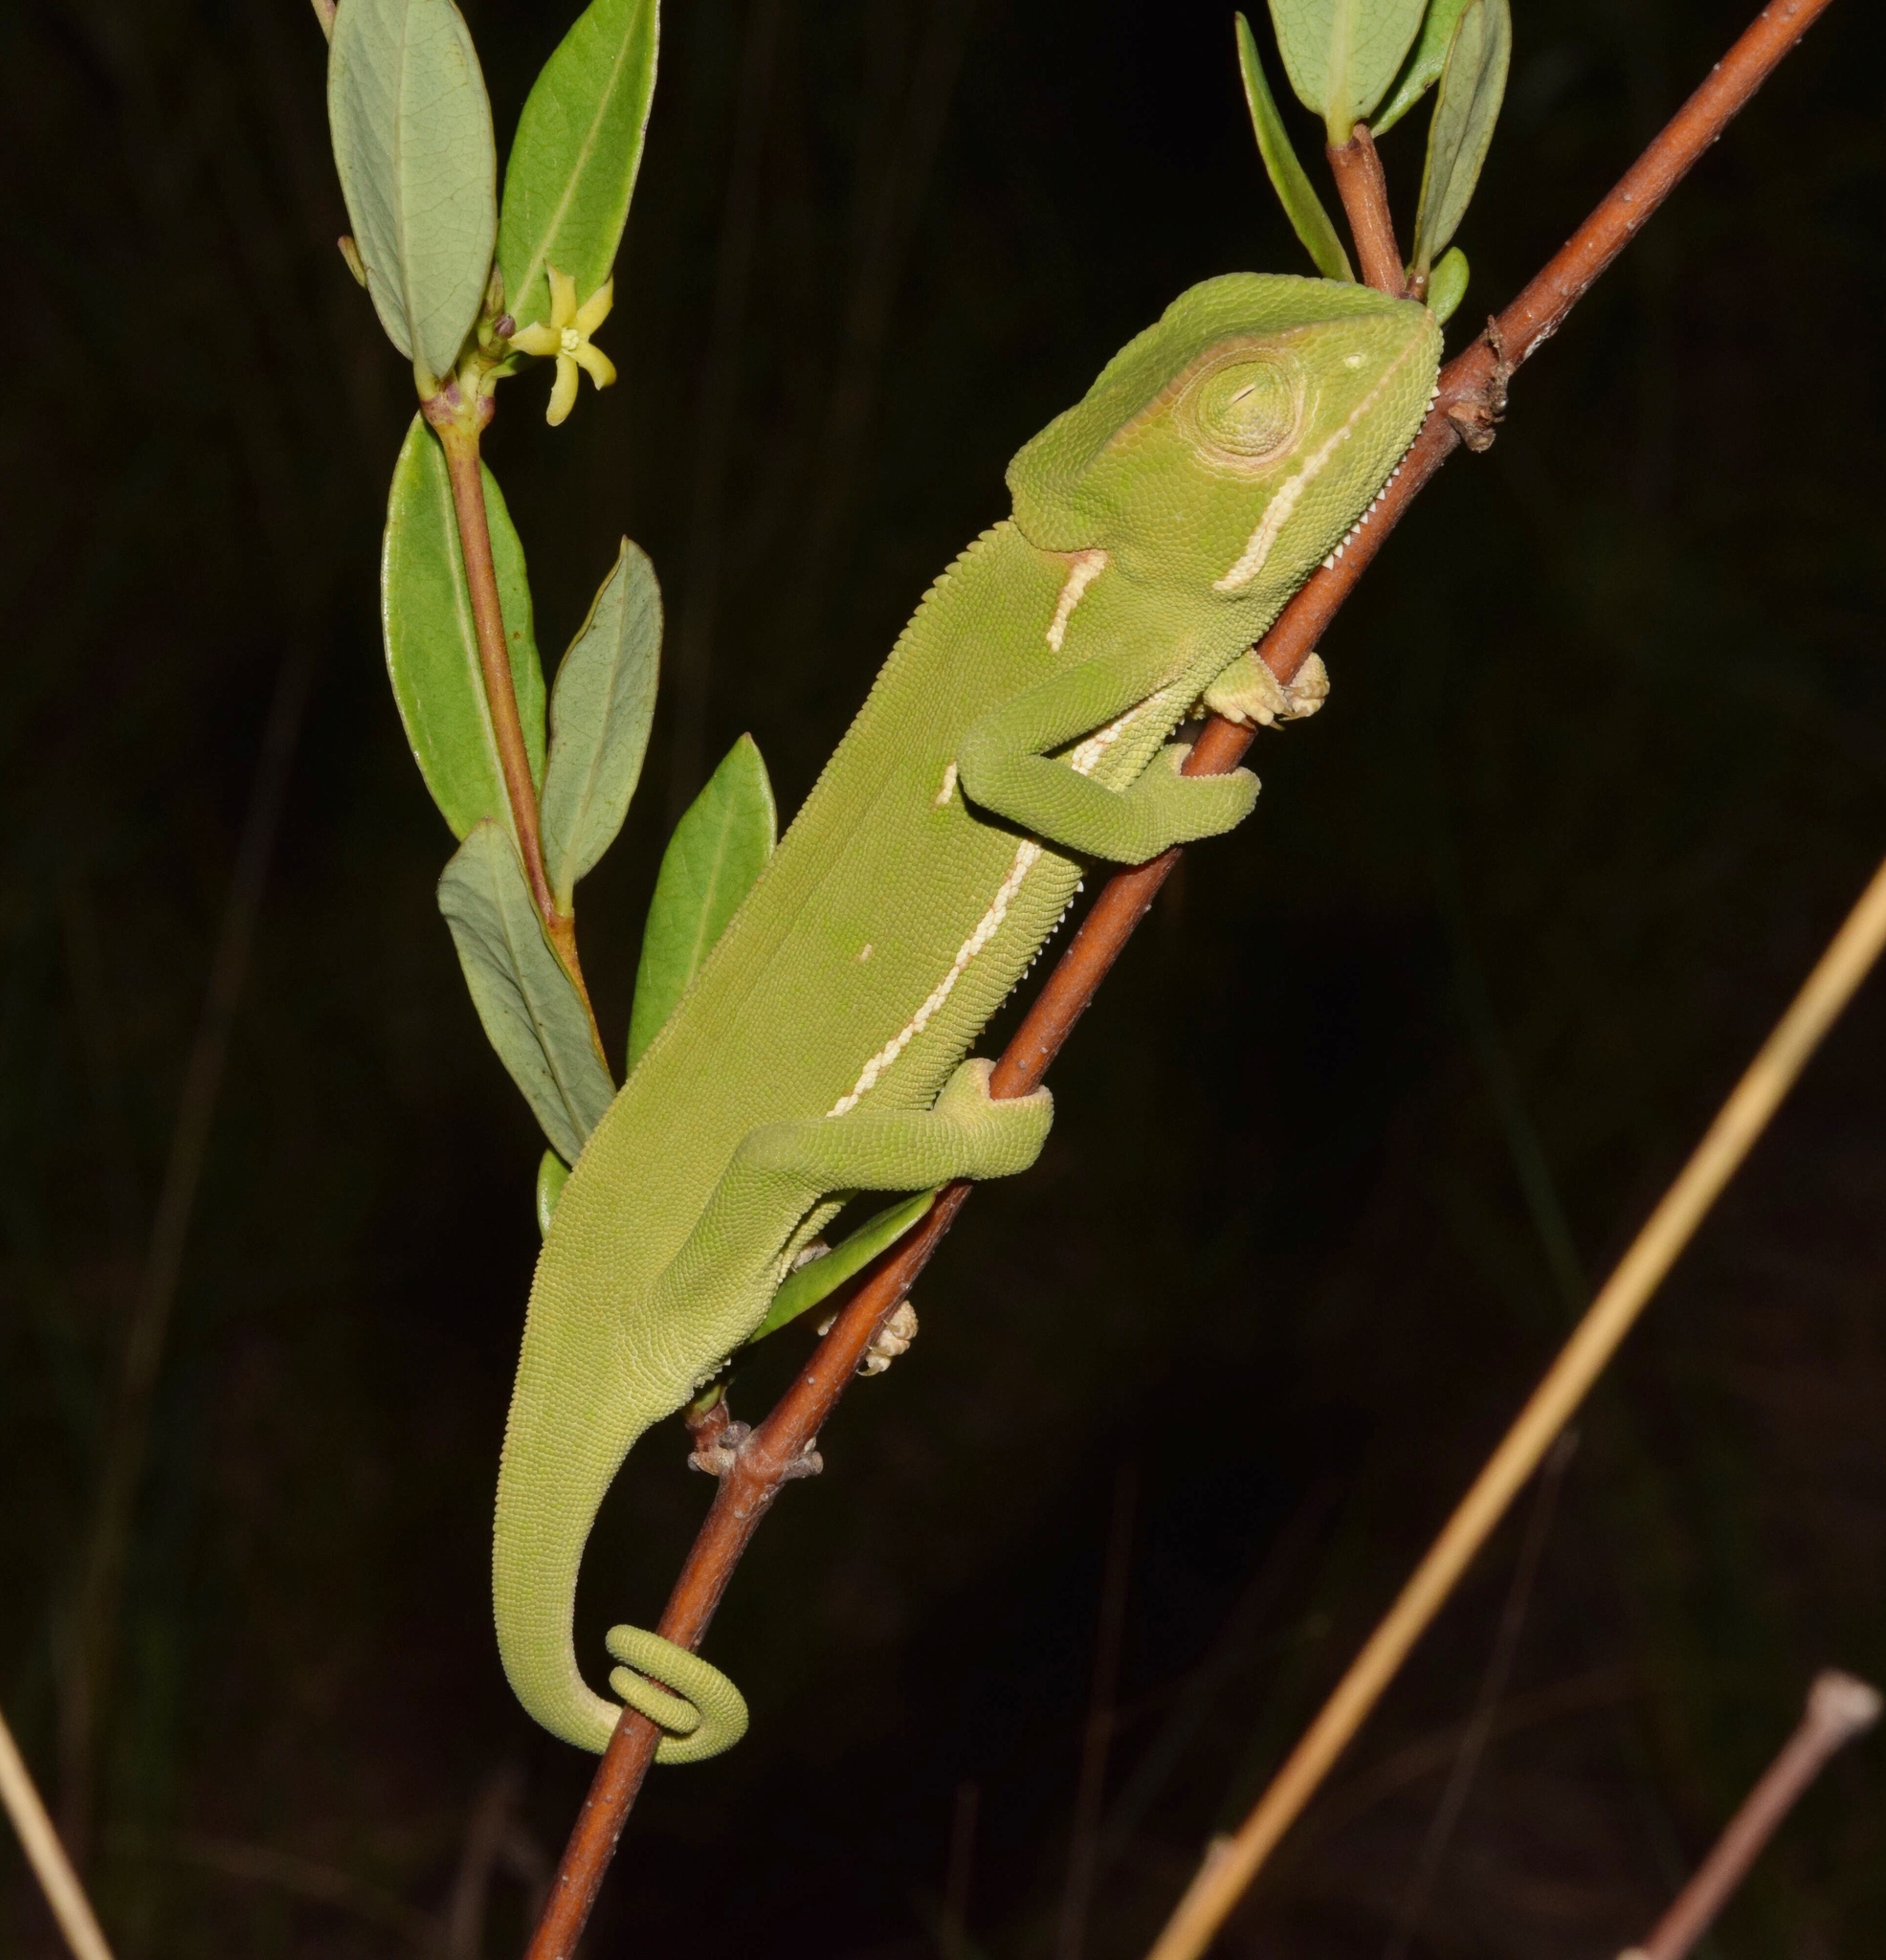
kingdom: Animalia
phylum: Chordata
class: Squamata
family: Chamaeleonidae
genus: Chamaeleo
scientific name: Chamaeleo dilepis
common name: Flapneck chameleon
